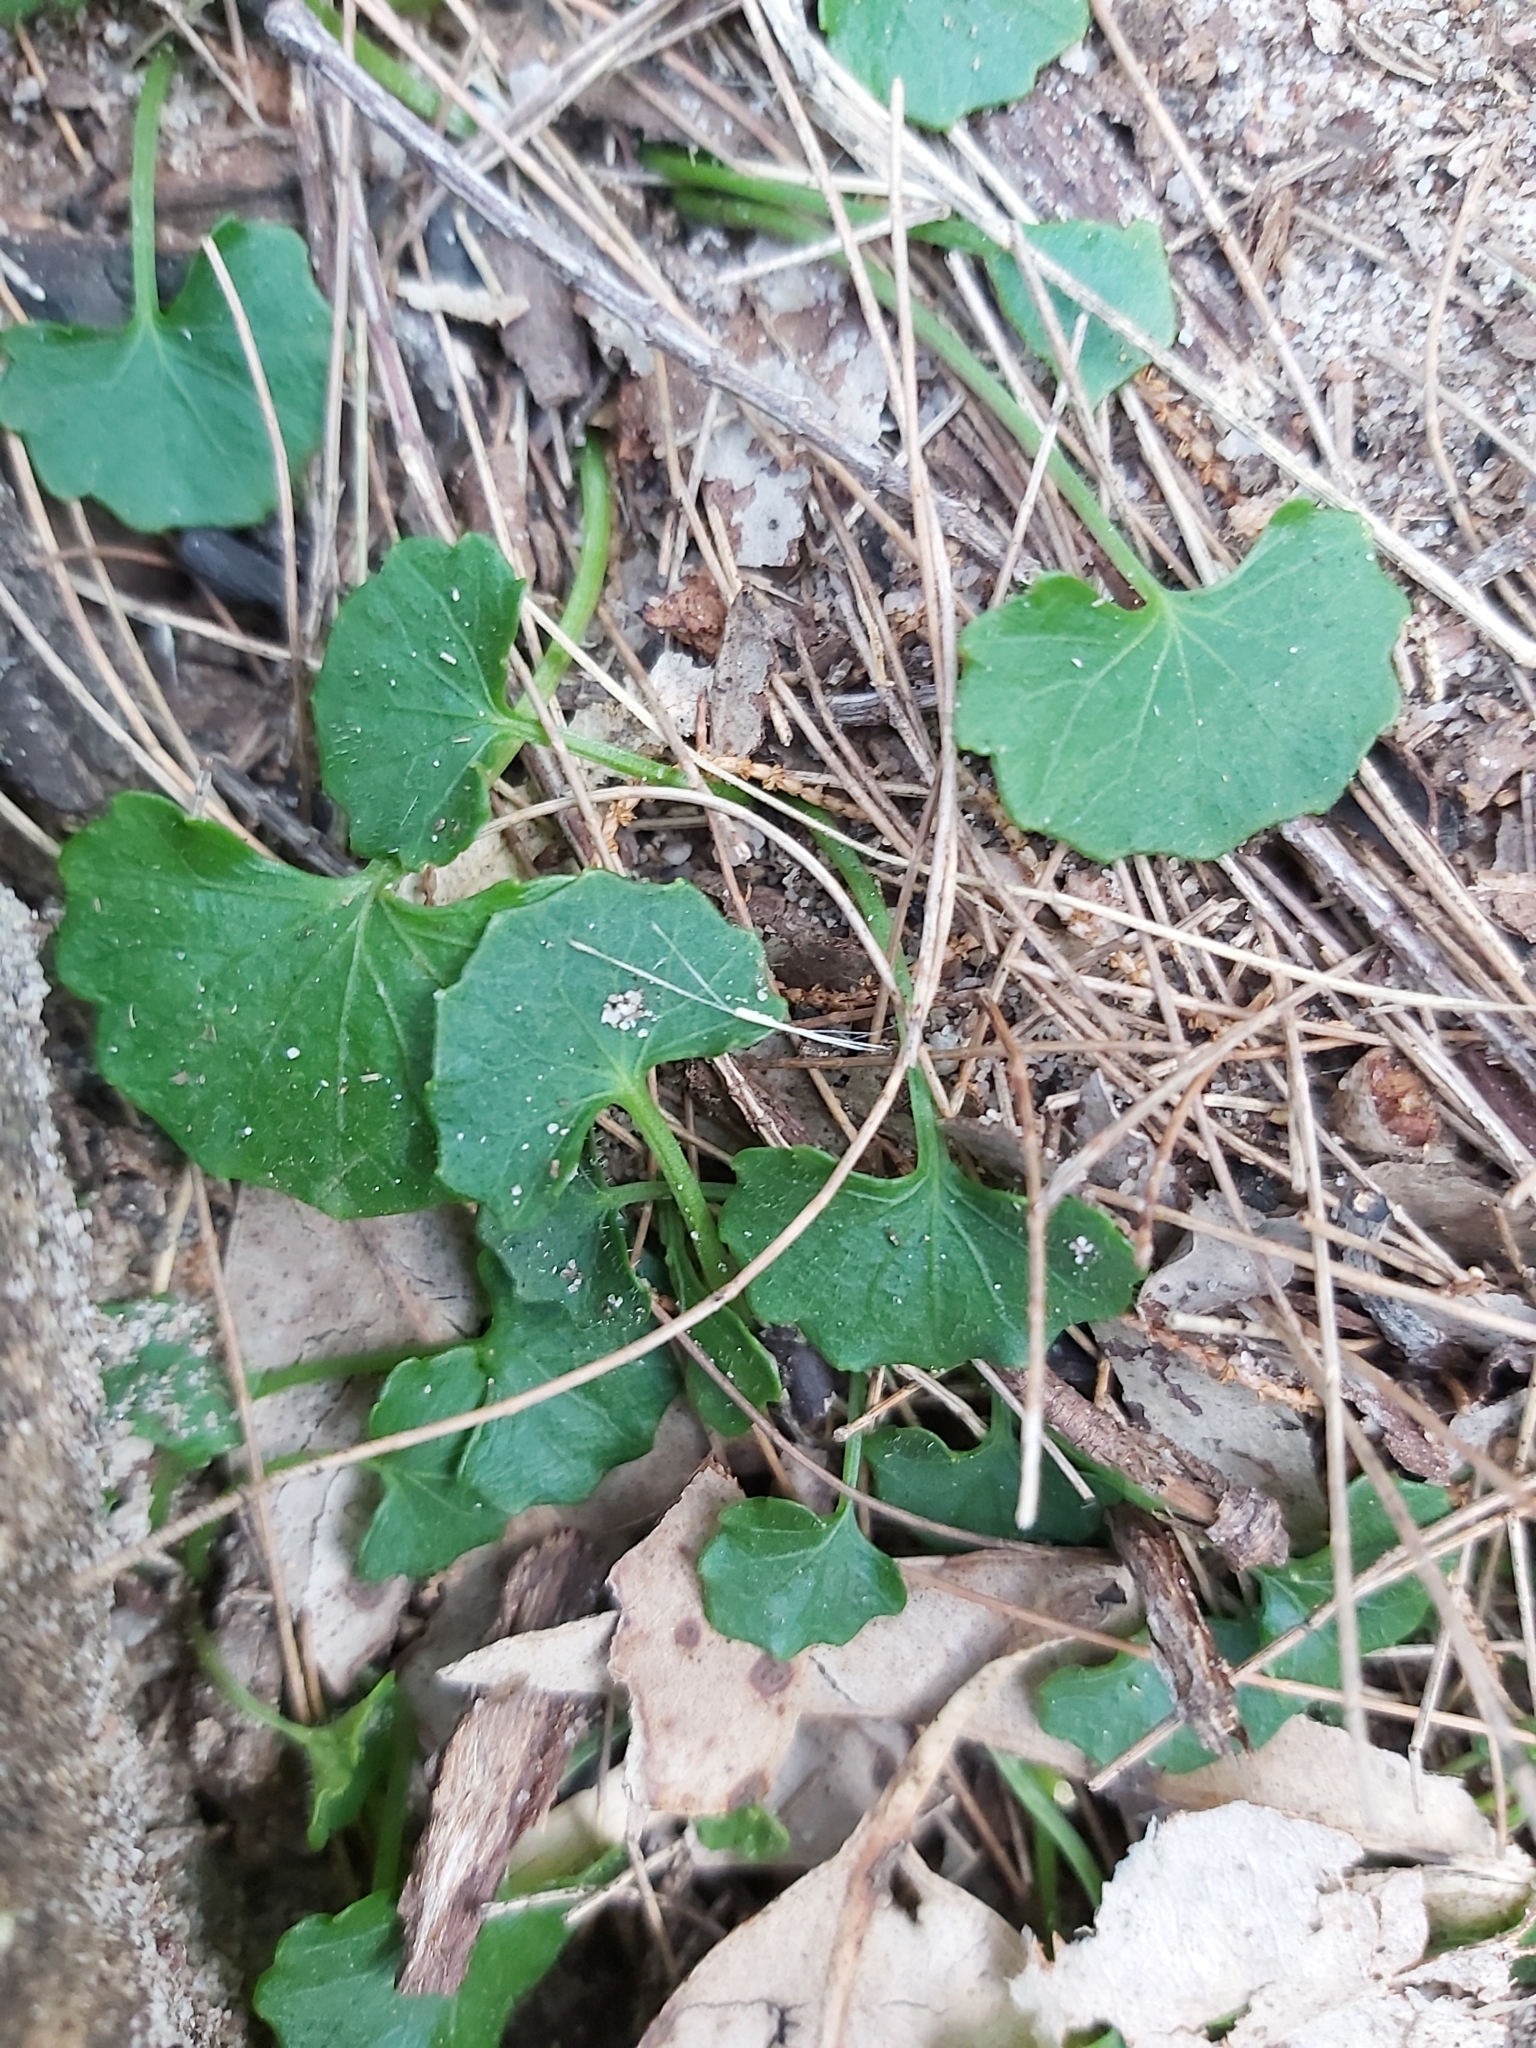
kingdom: Plantae
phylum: Tracheophyta
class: Magnoliopsida
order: Apiales
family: Apiaceae
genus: Centella
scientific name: Centella asiatica
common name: Spadeleaf
